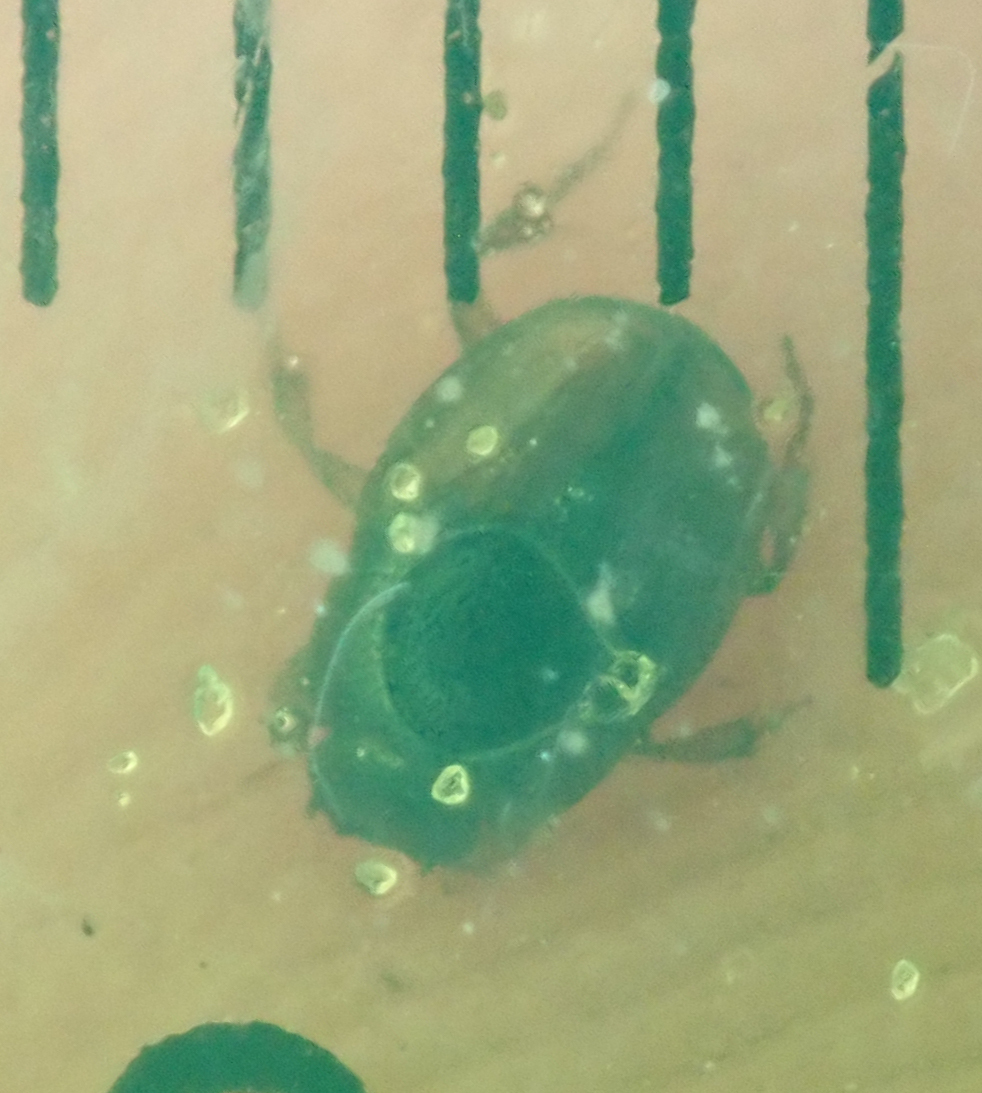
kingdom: Animalia
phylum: Arthropoda
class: Insecta
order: Coleoptera
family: Scarabaeidae
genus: Cleptocaccobius
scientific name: Cleptocaccobius viridicollis
